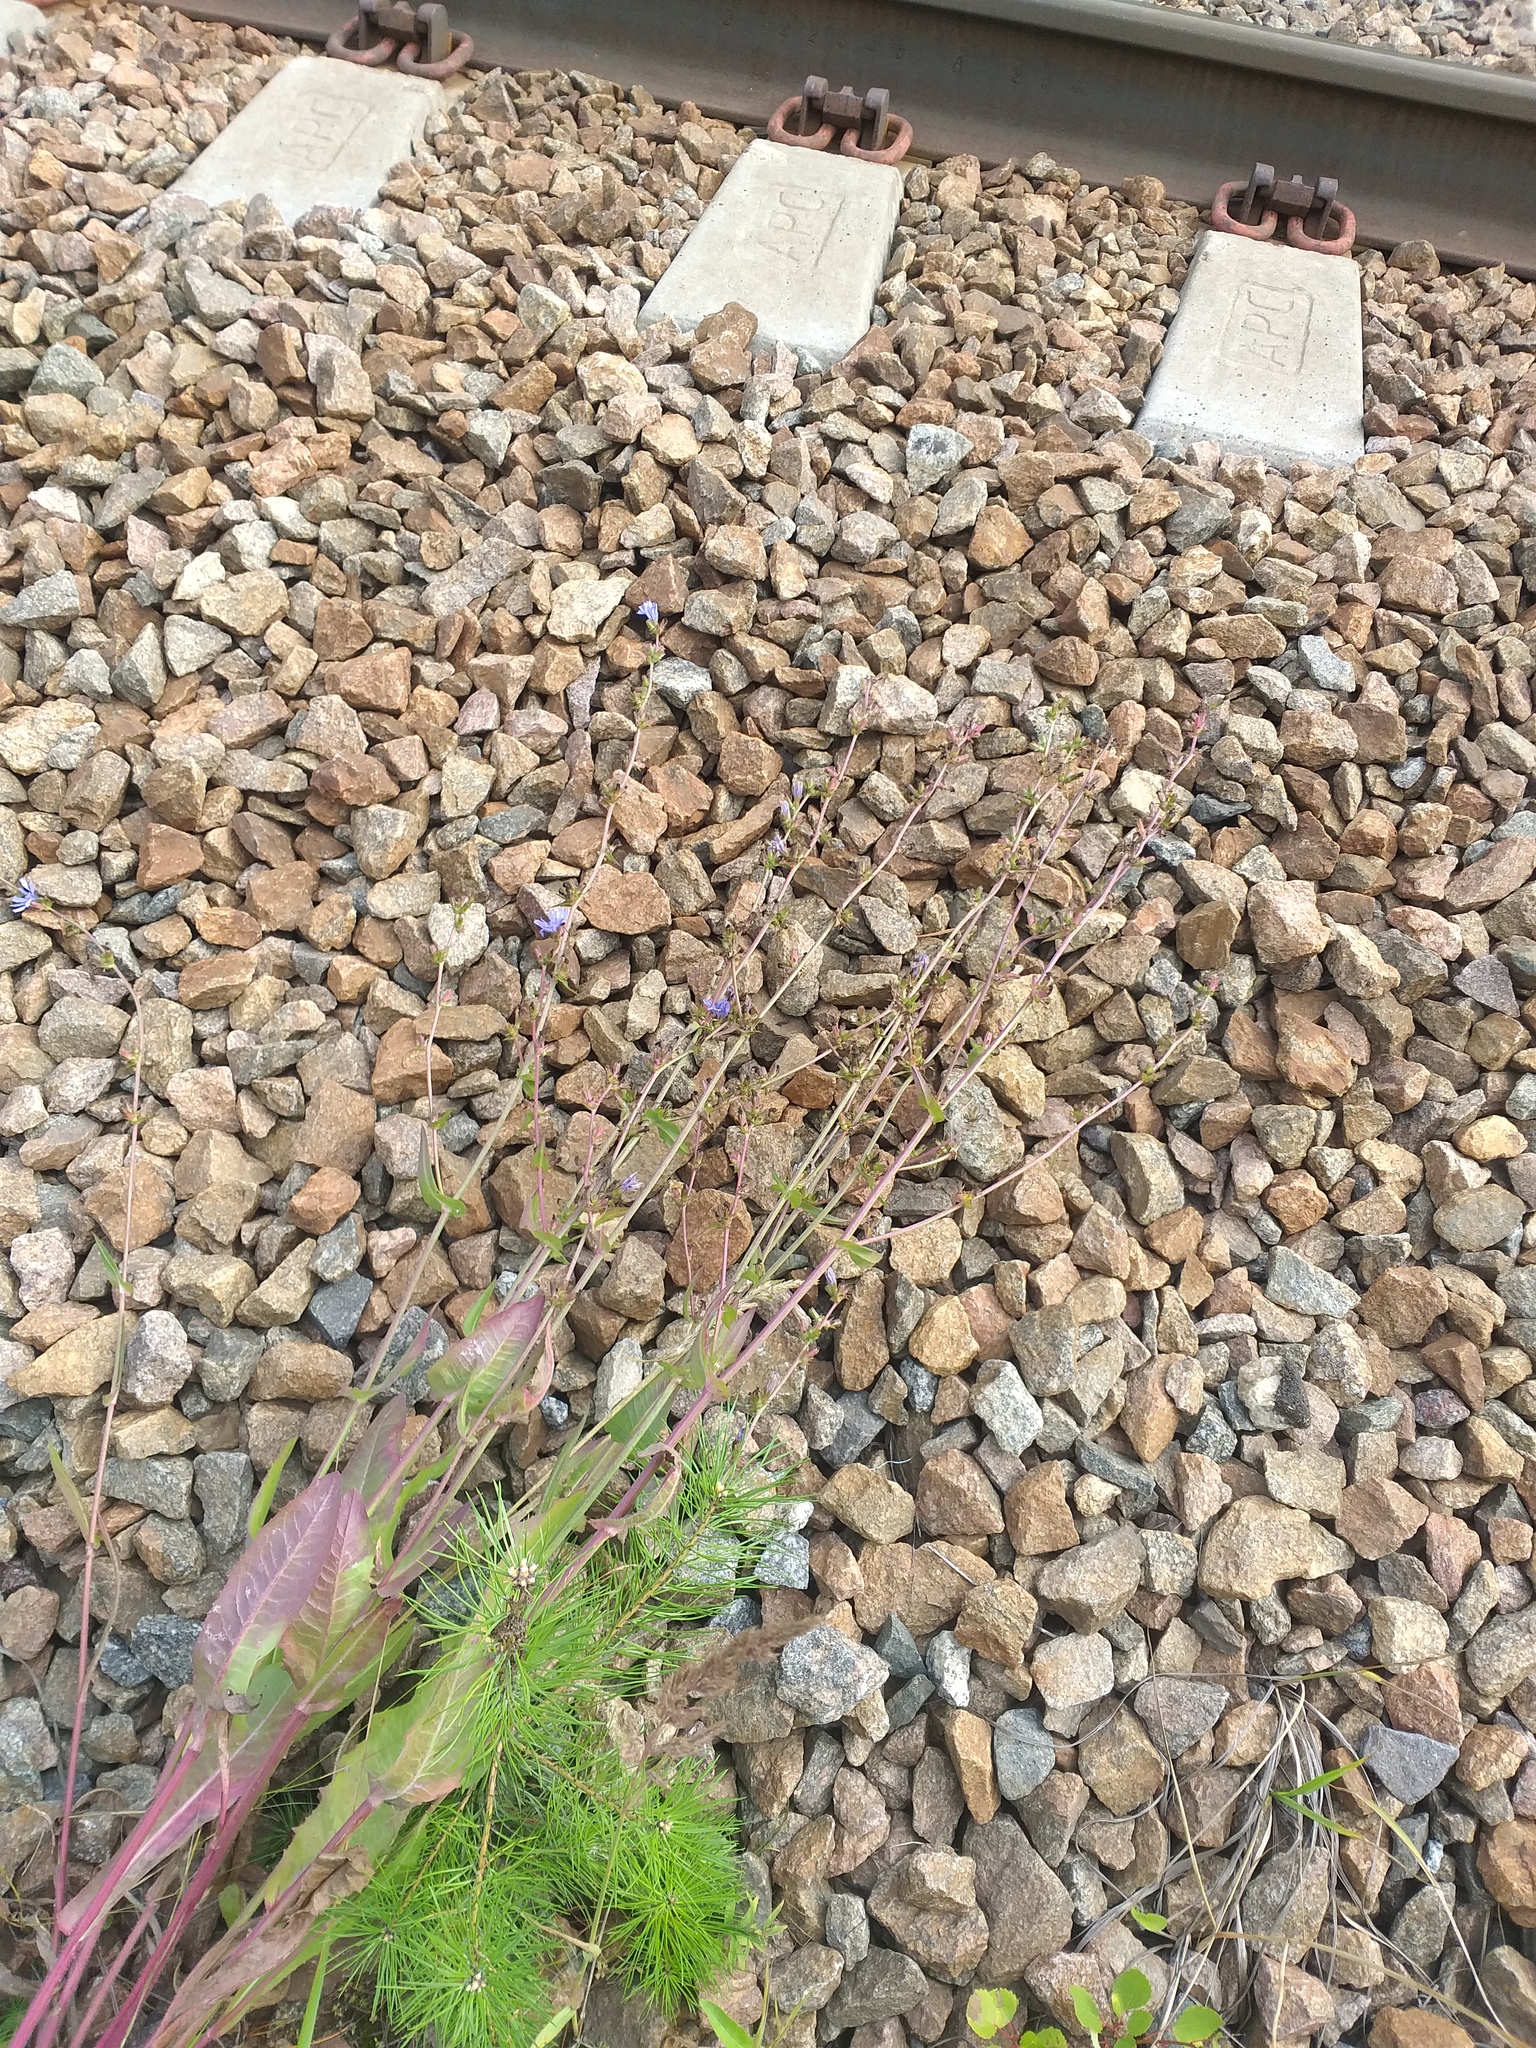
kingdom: Plantae
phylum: Tracheophyta
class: Magnoliopsida
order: Asterales
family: Asteraceae
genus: Cichorium
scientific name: Cichorium intybus
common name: Chicory
